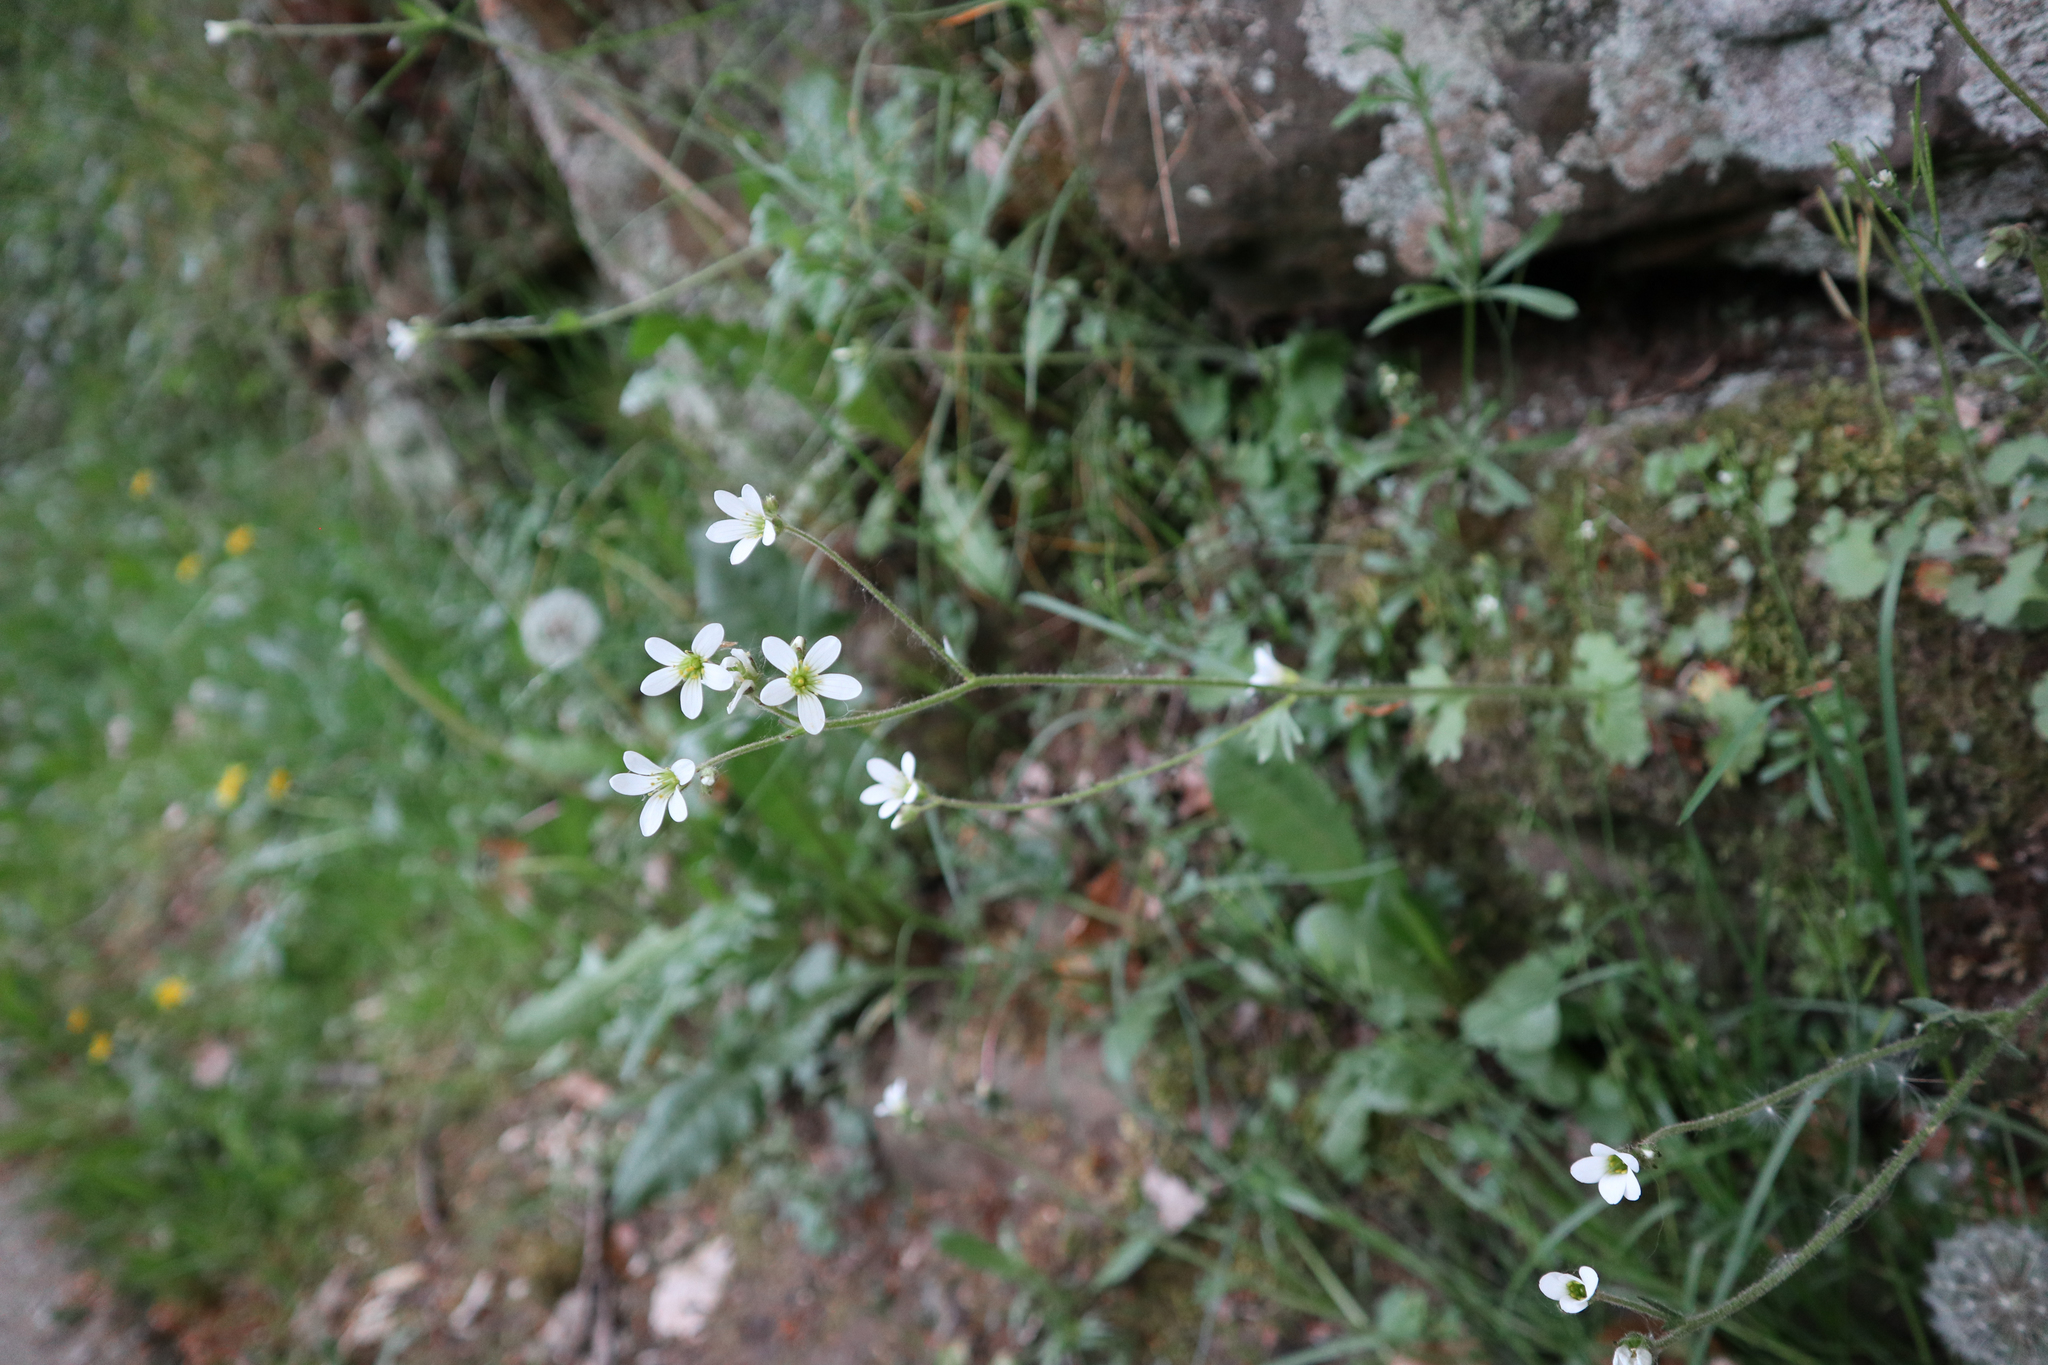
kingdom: Plantae
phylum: Tracheophyta
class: Magnoliopsida
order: Saxifragales
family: Saxifragaceae
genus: Saxifraga
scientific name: Saxifraga granulata
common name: Meadow saxifrage
